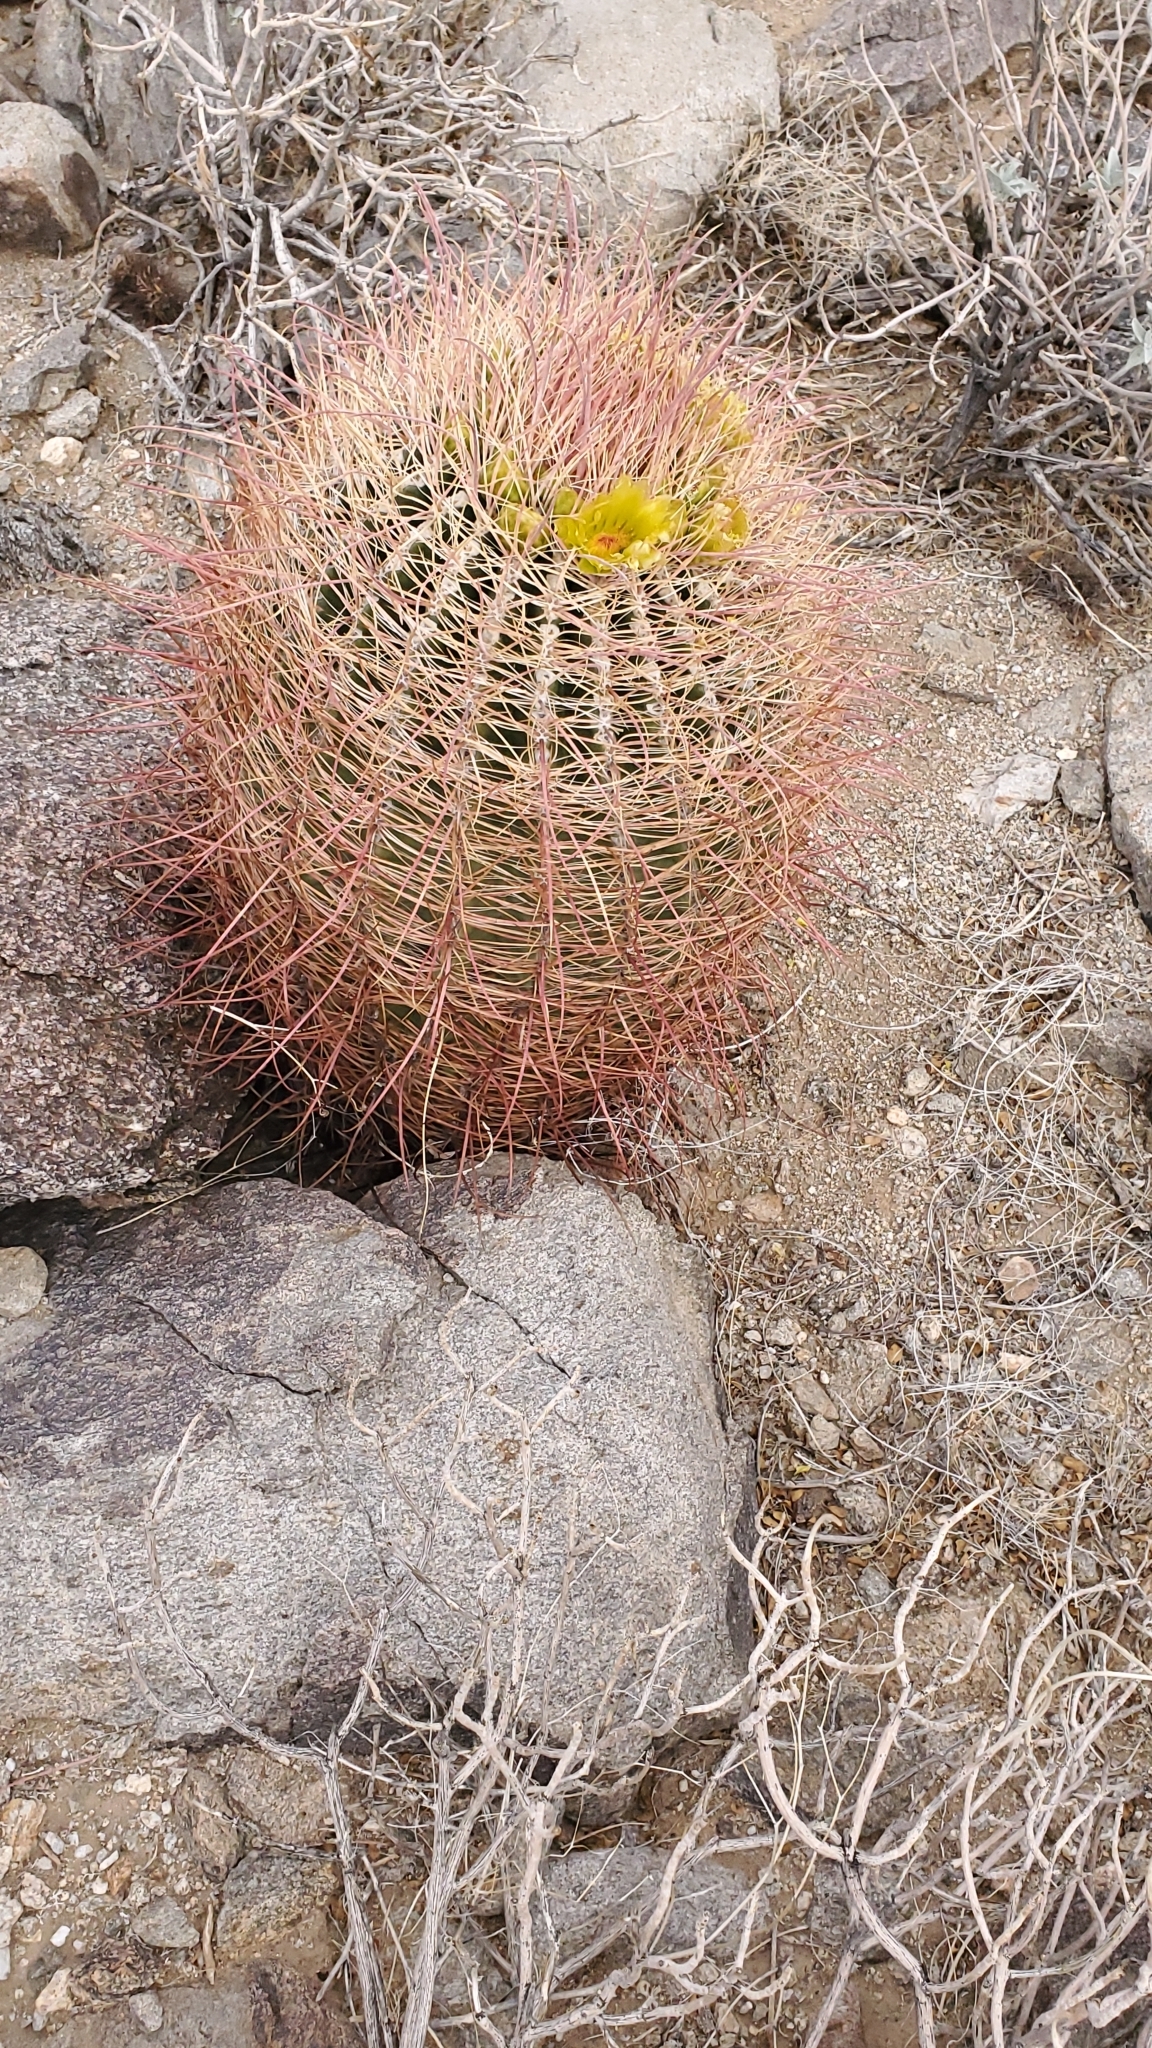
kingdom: Plantae
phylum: Tracheophyta
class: Magnoliopsida
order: Caryophyllales
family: Cactaceae
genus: Ferocactus
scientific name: Ferocactus cylindraceus
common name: California barrel cactus
